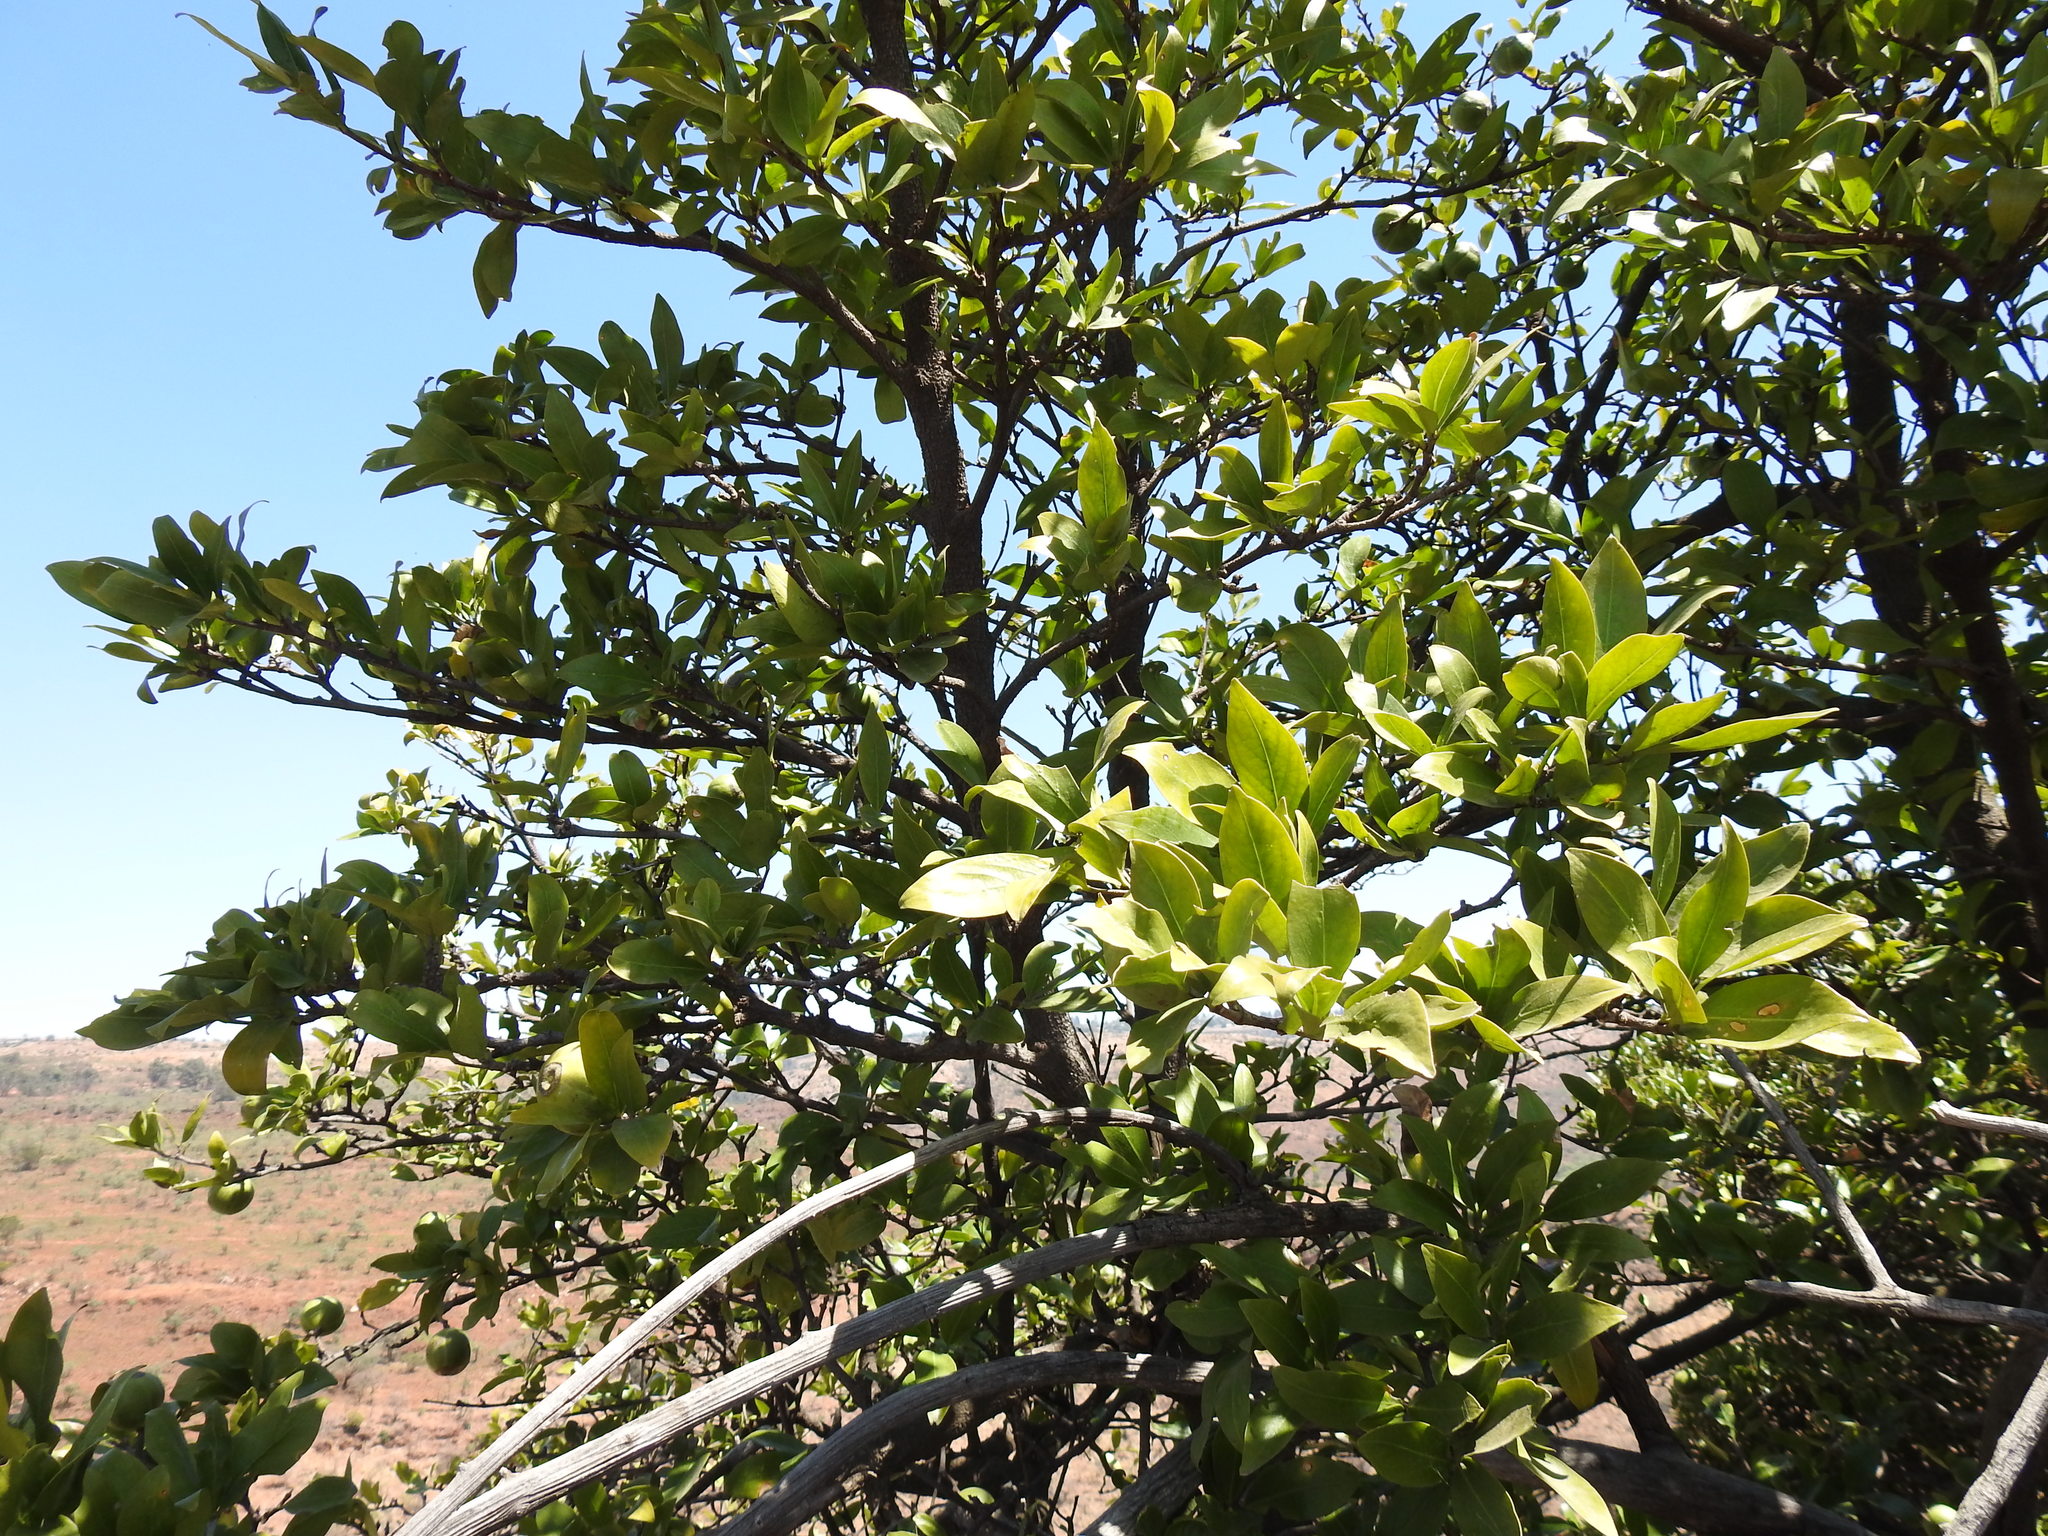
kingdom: Plantae
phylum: Tracheophyta
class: Magnoliopsida
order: Gentianales
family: Rubiaceae
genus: Rothmannia
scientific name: Rothmannia capensis
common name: Cape gardenia
